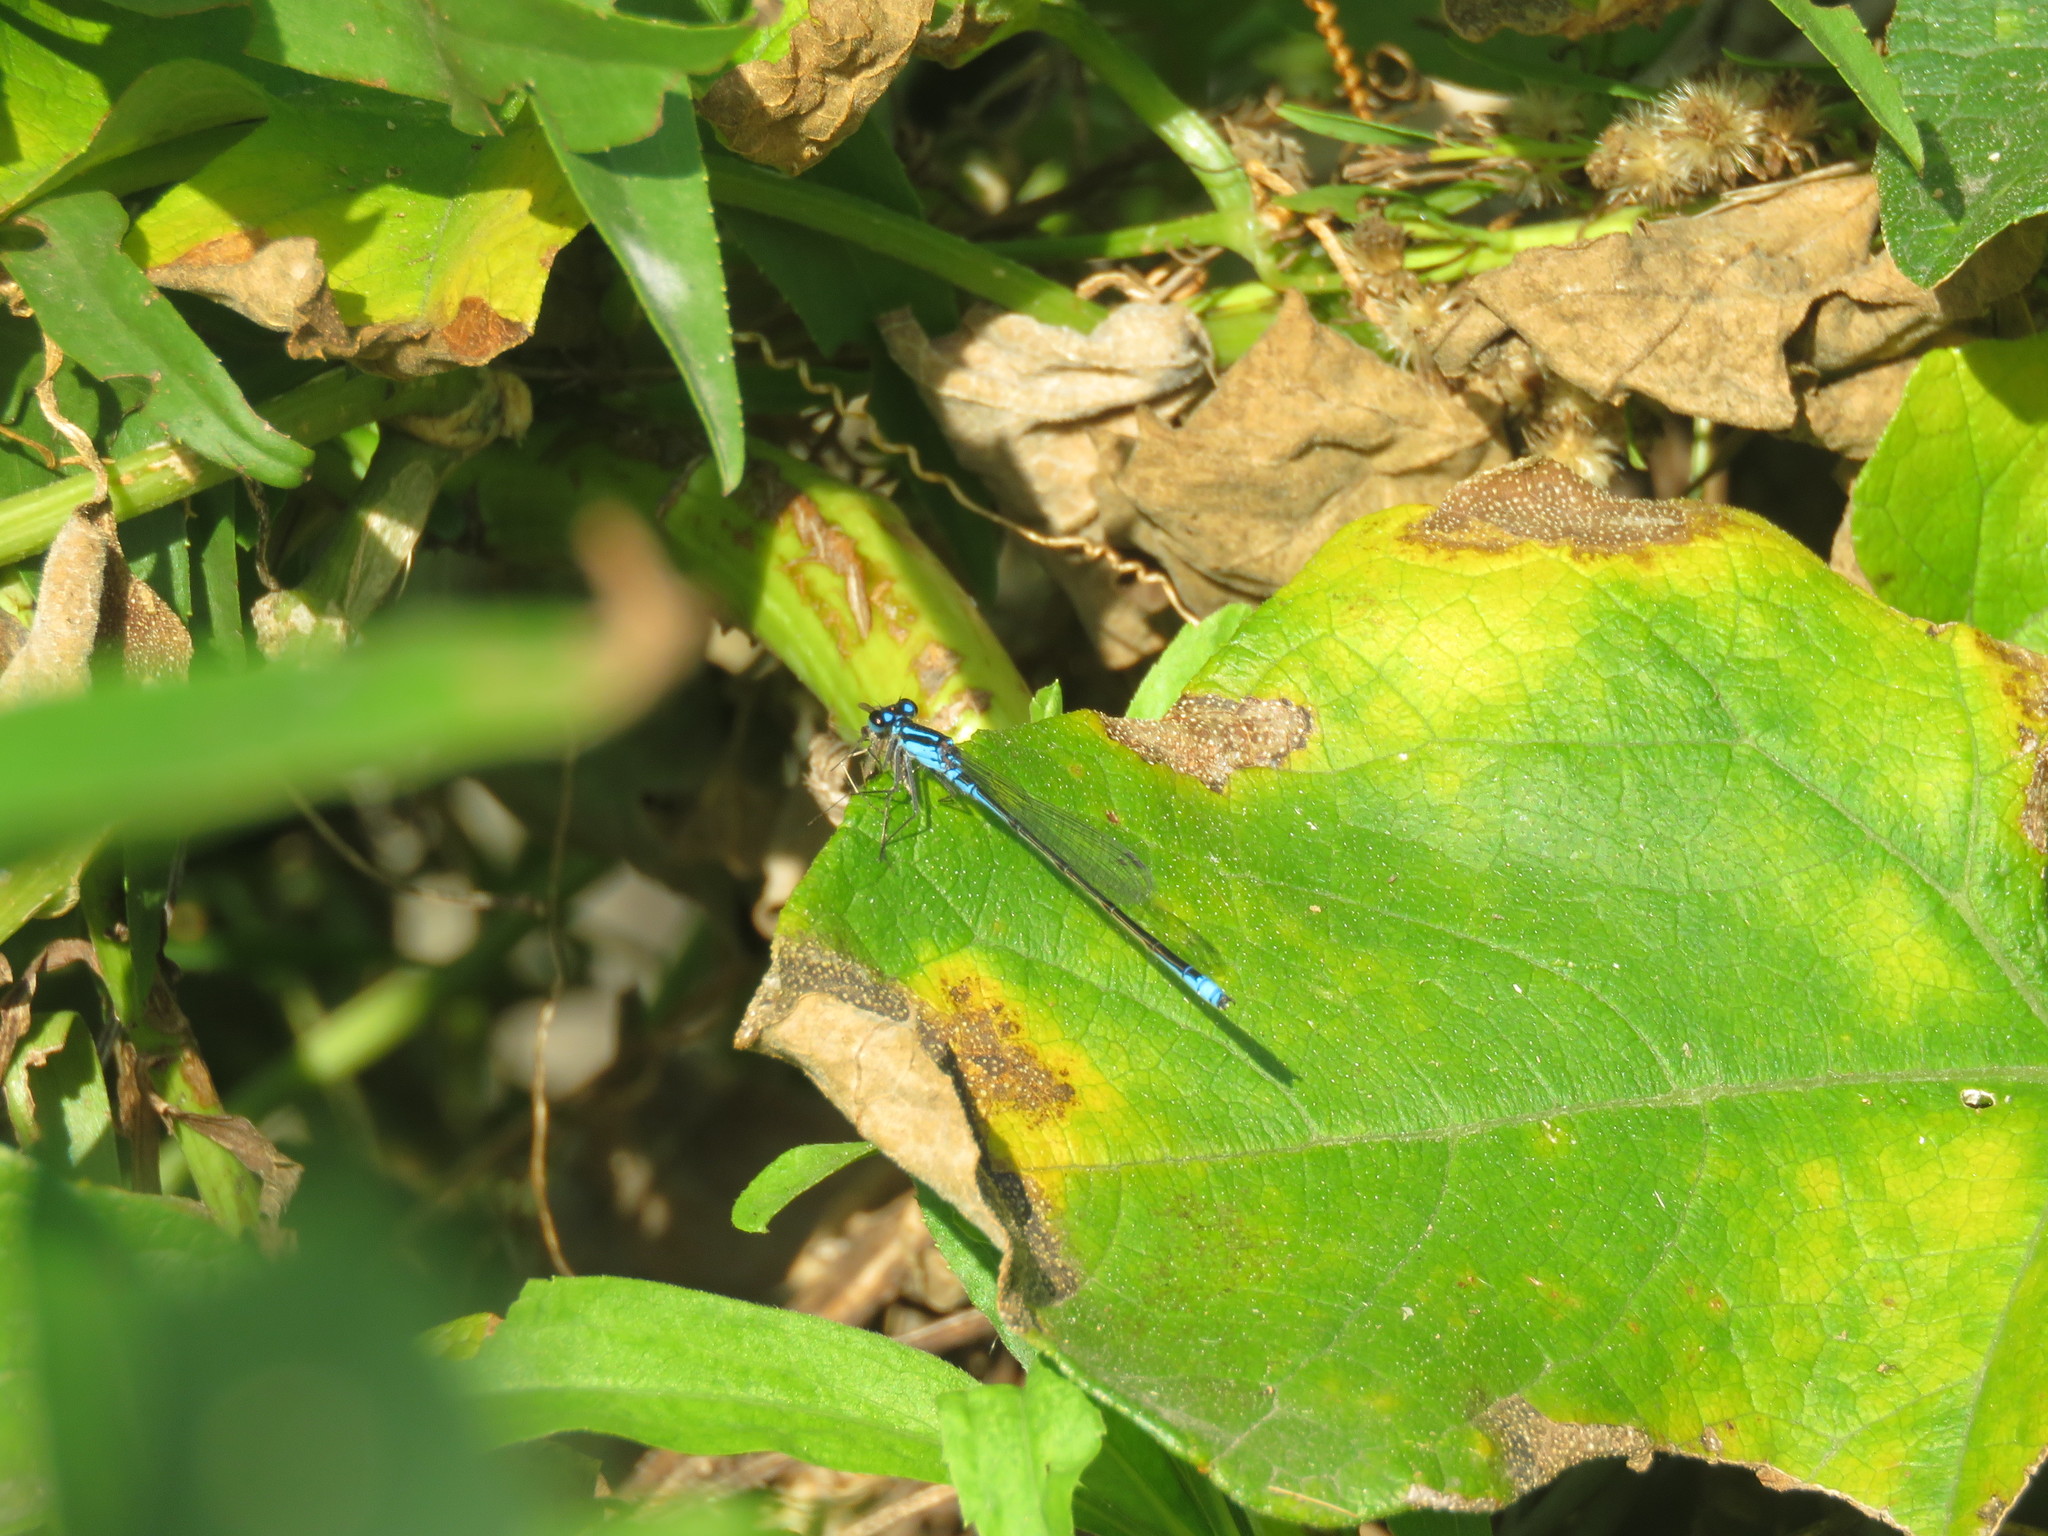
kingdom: Animalia
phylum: Arthropoda
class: Insecta
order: Odonata
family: Coenagrionidae
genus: Homeoura
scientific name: Homeoura chelifera
